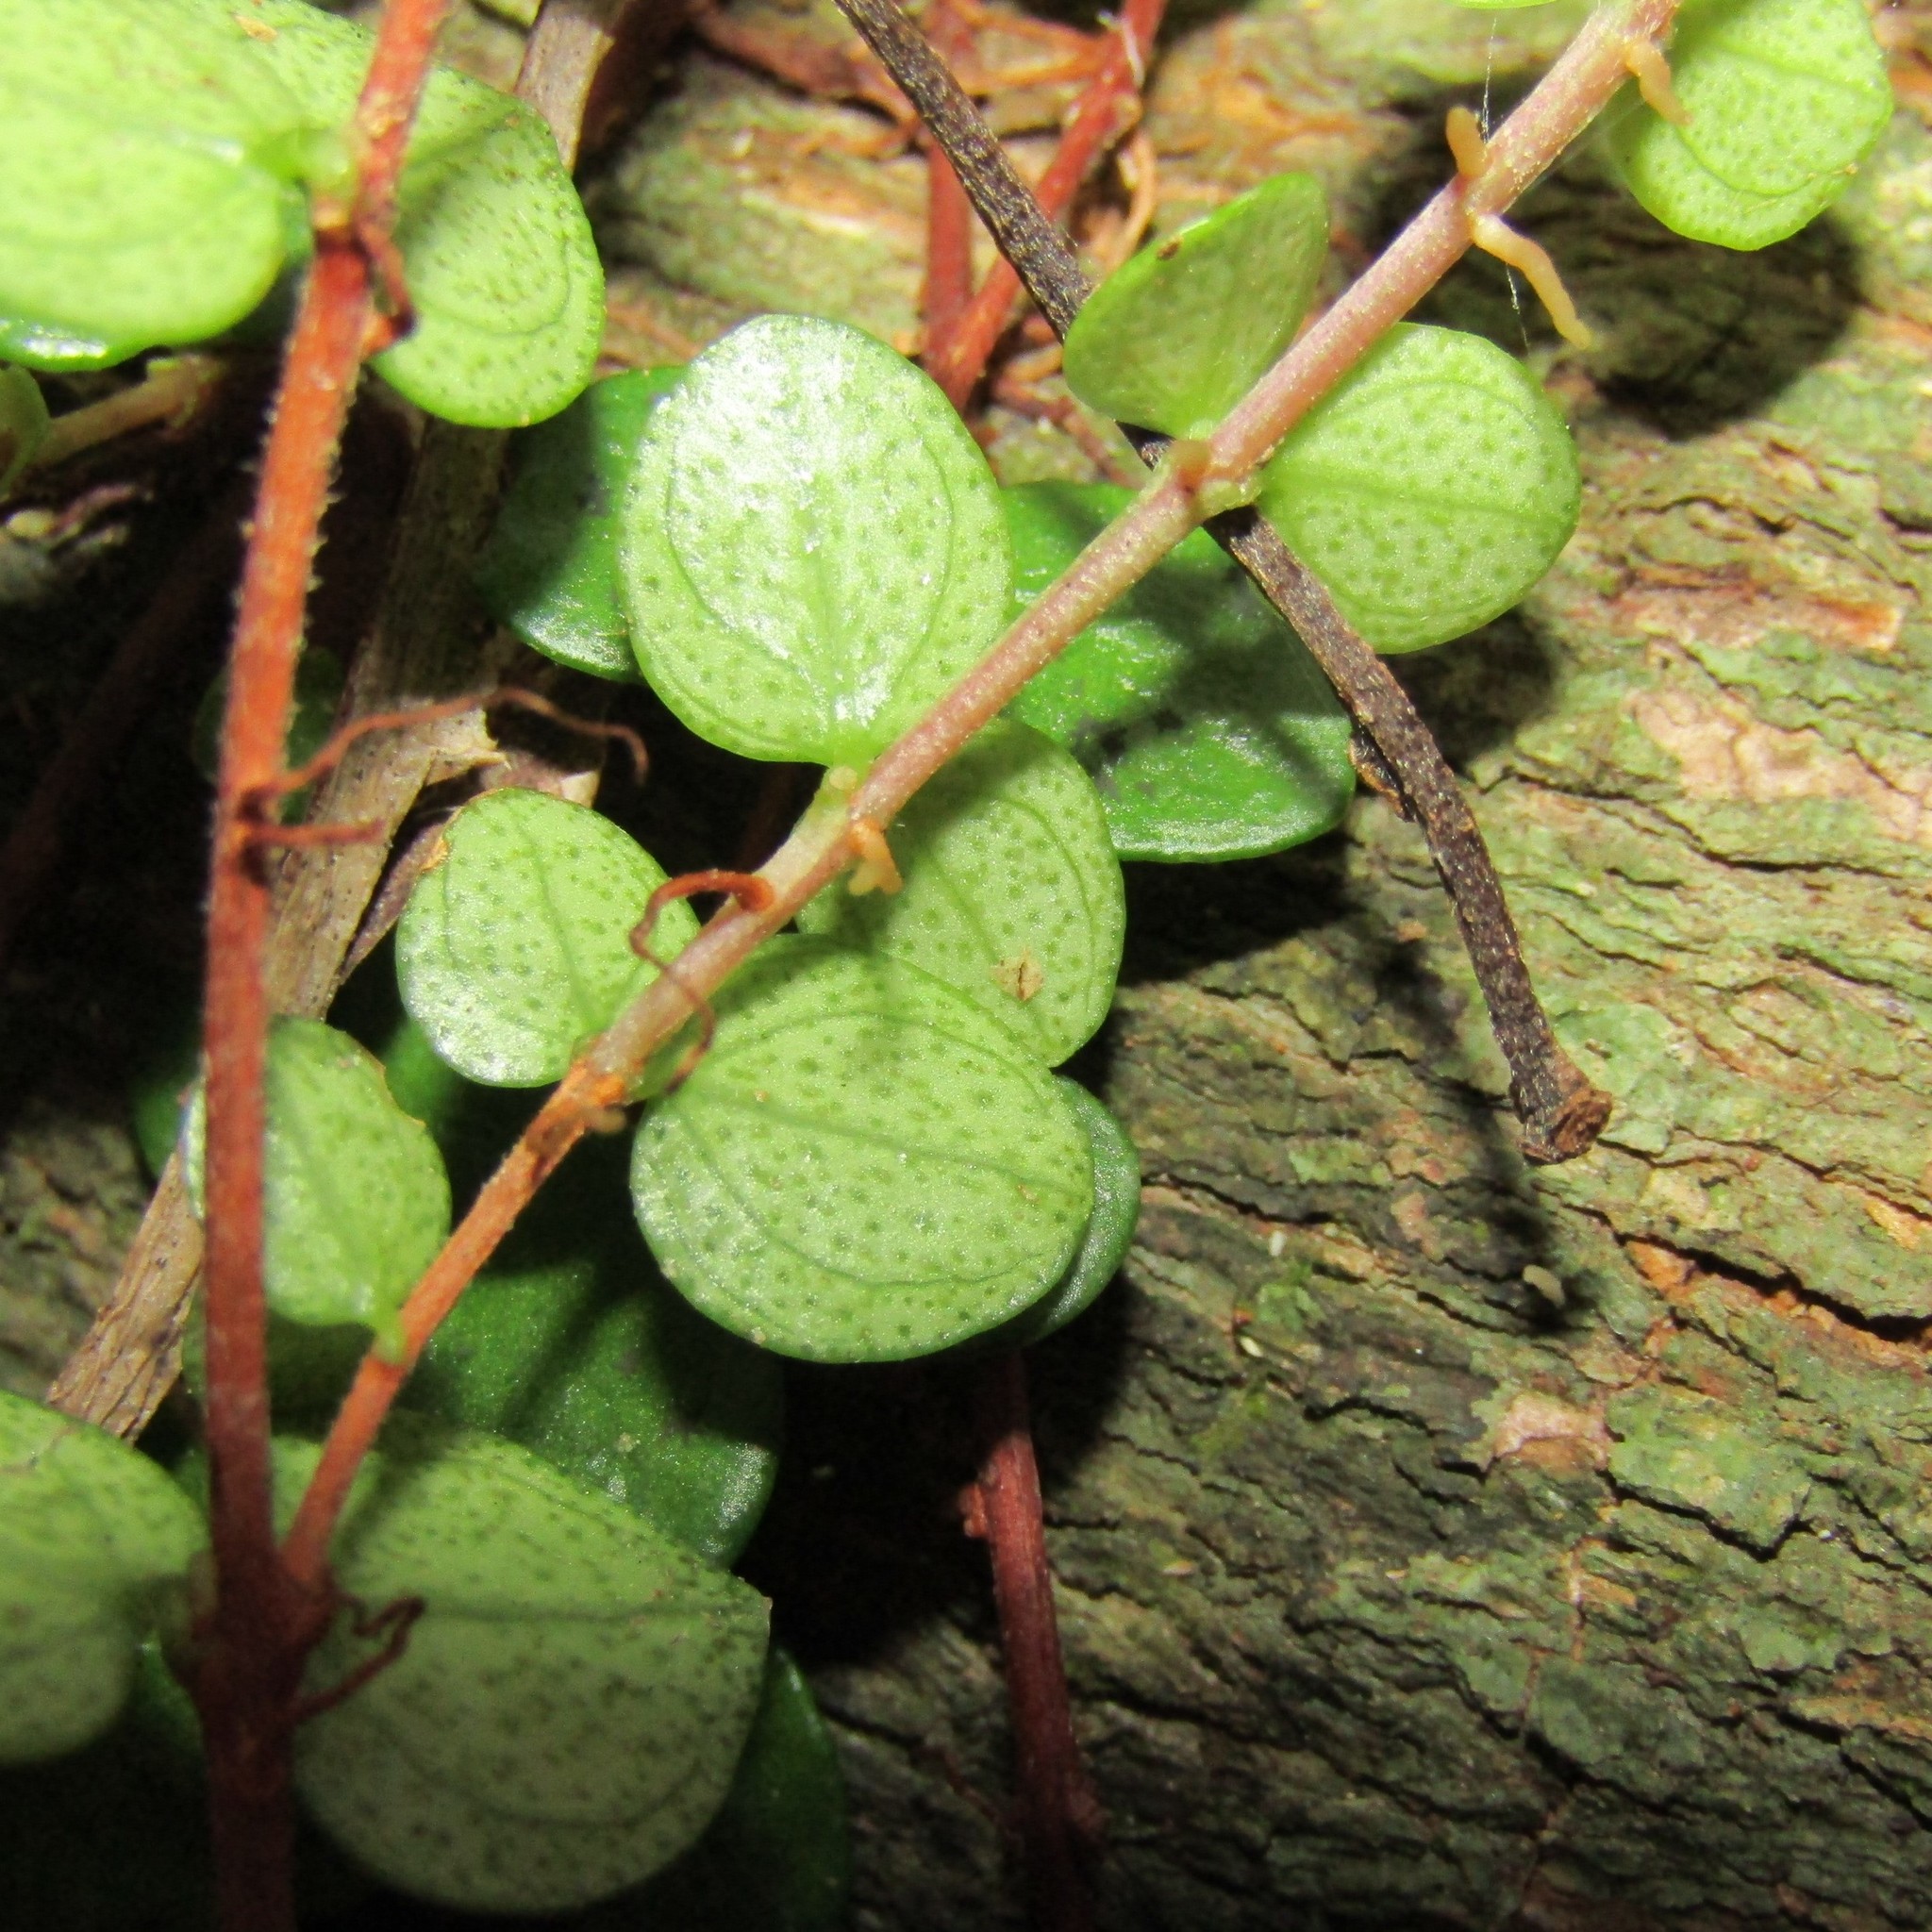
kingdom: Plantae
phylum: Tracheophyta
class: Magnoliopsida
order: Myrtales
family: Myrtaceae
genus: Metrosideros
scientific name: Metrosideros perforata
